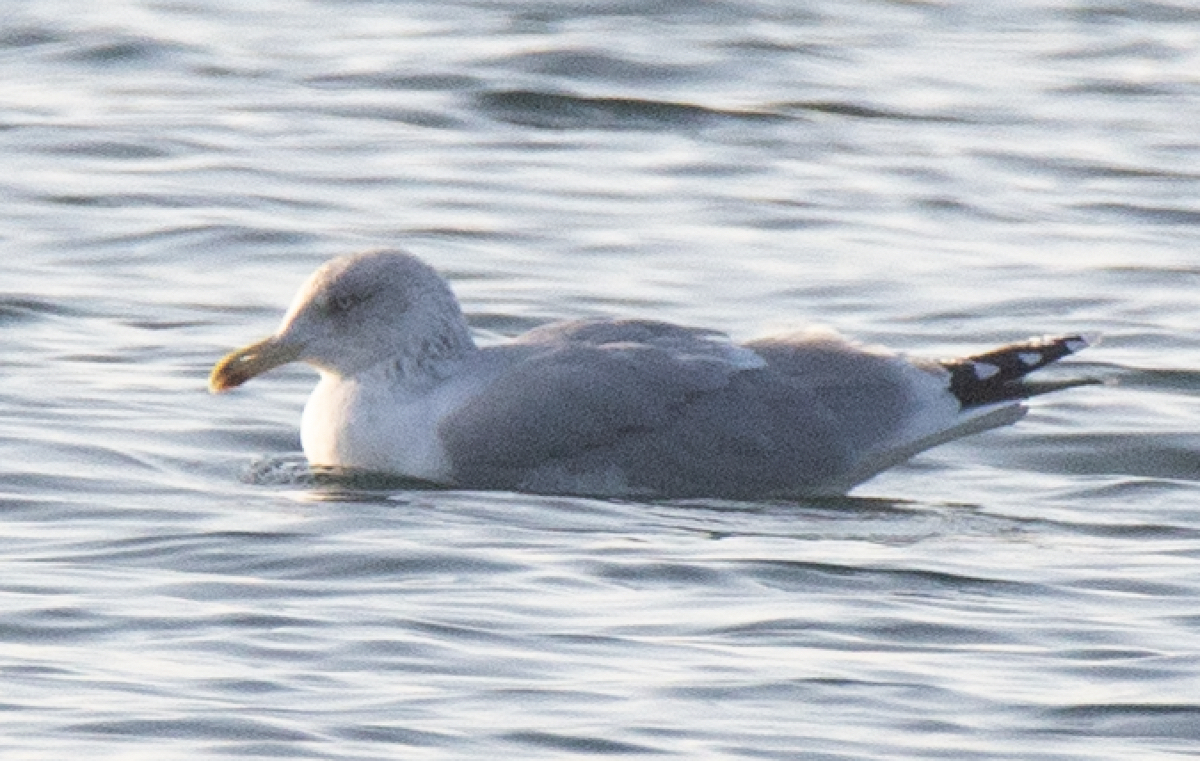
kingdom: Animalia
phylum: Chordata
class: Aves
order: Charadriiformes
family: Laridae
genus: Larus
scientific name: Larus argentatus
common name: Herring gull
